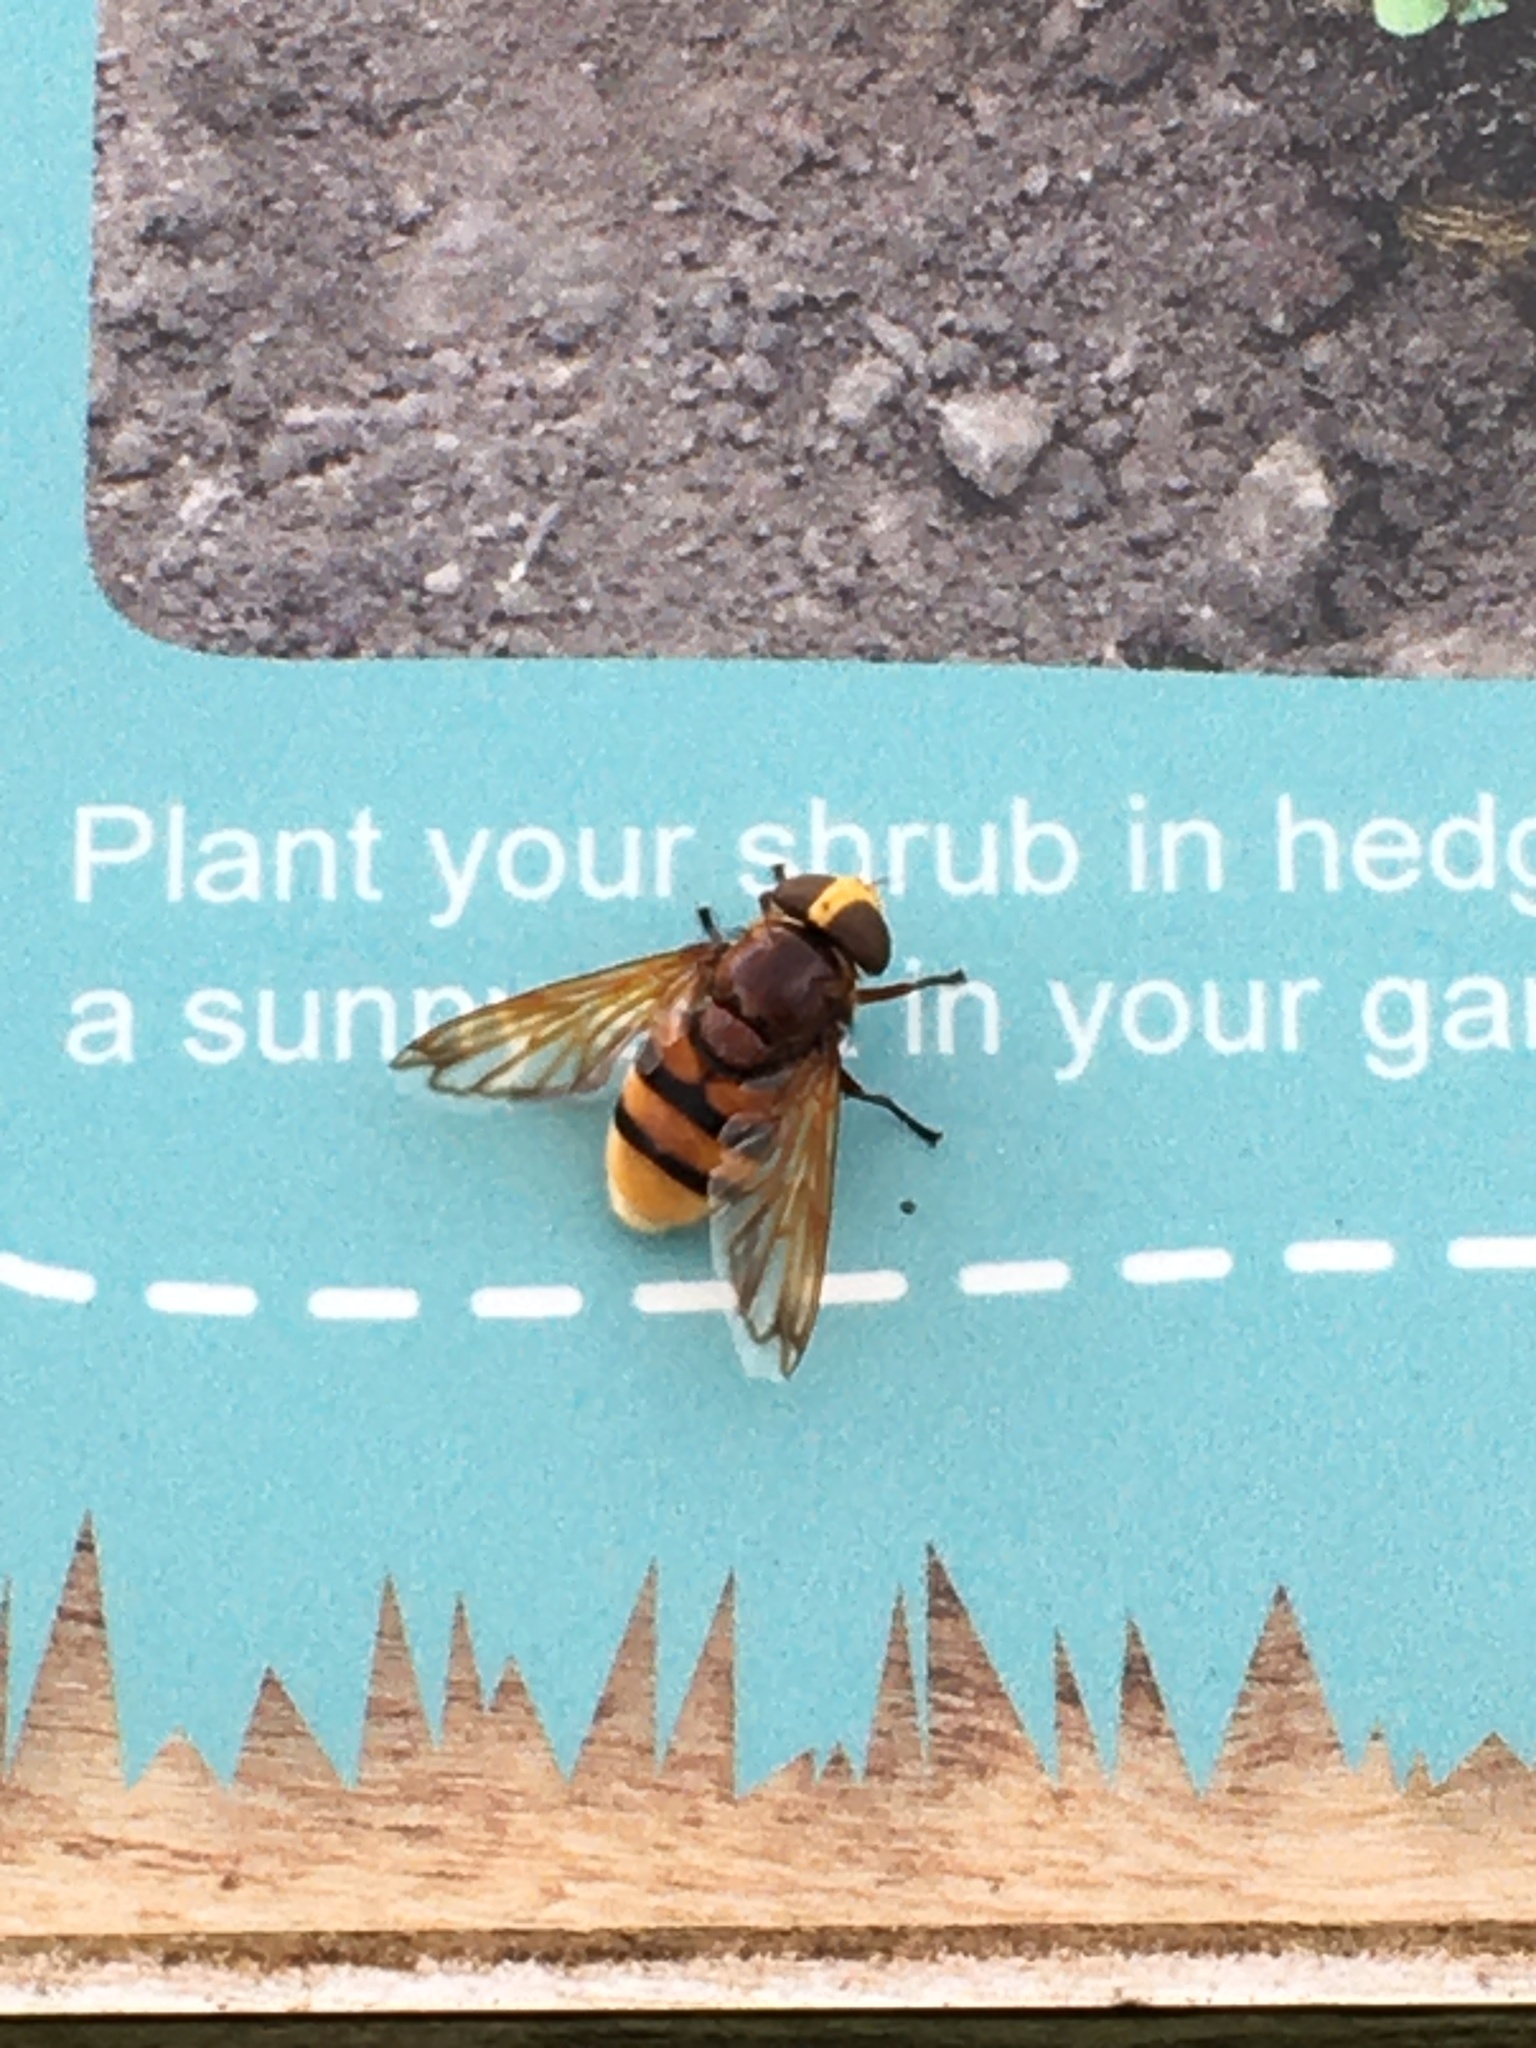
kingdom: Animalia
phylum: Arthropoda
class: Insecta
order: Diptera
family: Syrphidae
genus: Volucella
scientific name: Volucella zonaria
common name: Hornet hoverfly
